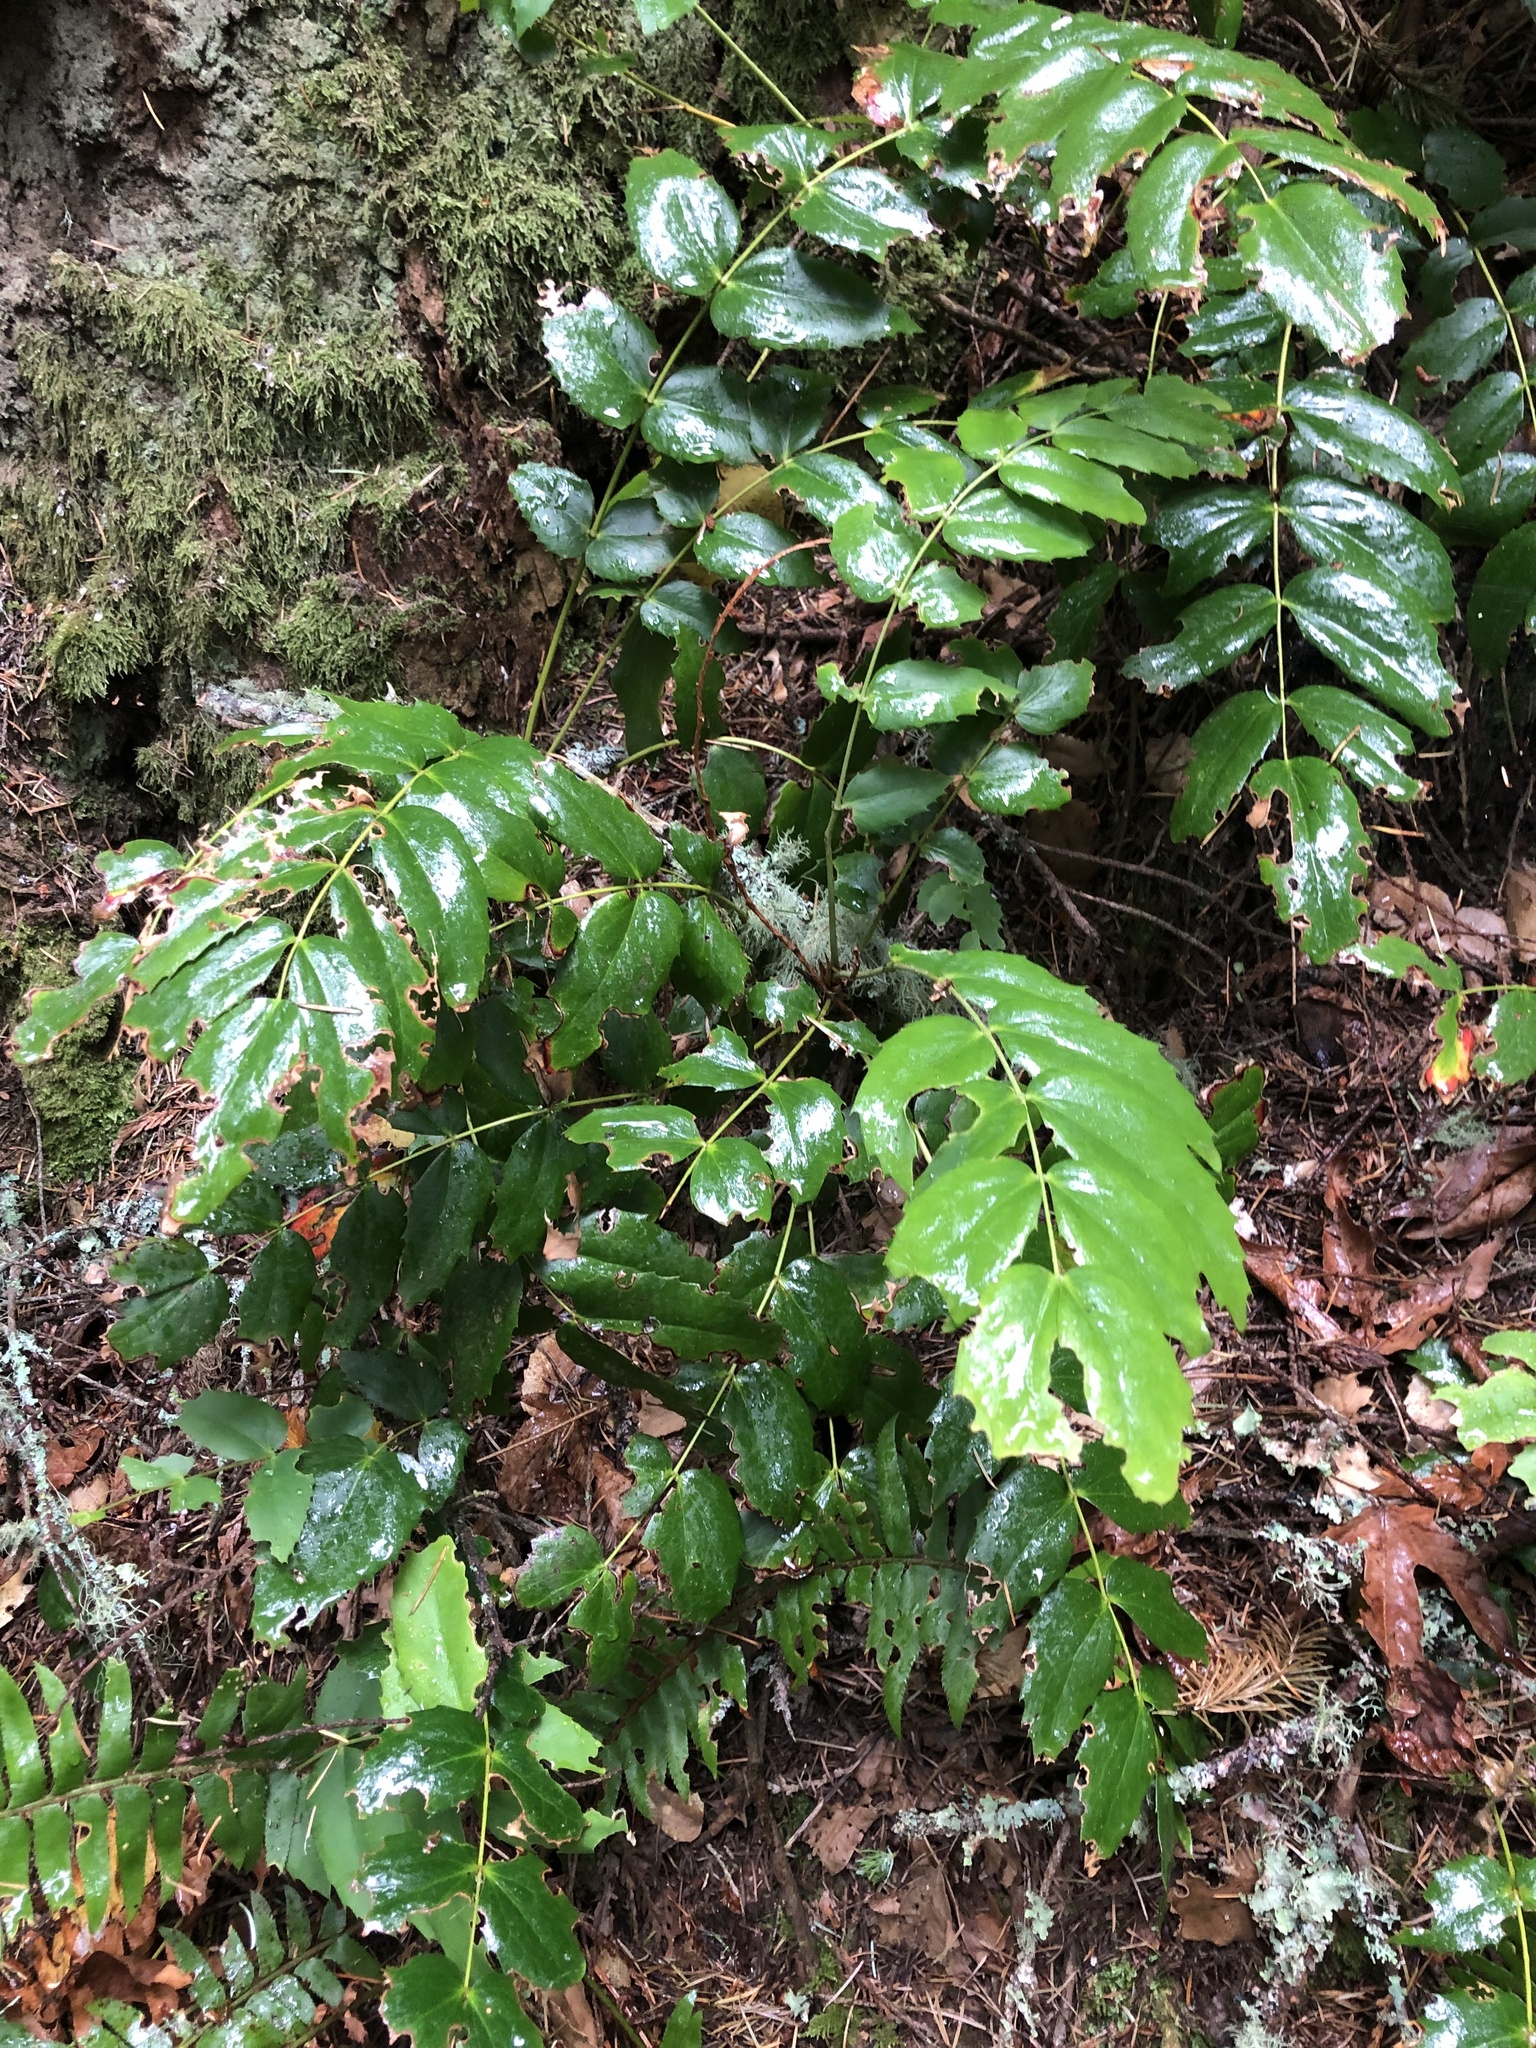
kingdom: Plantae
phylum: Tracheophyta
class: Magnoliopsida
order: Ranunculales
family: Berberidaceae
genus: Mahonia
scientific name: Mahonia nervosa
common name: Cascade oregon-grape
